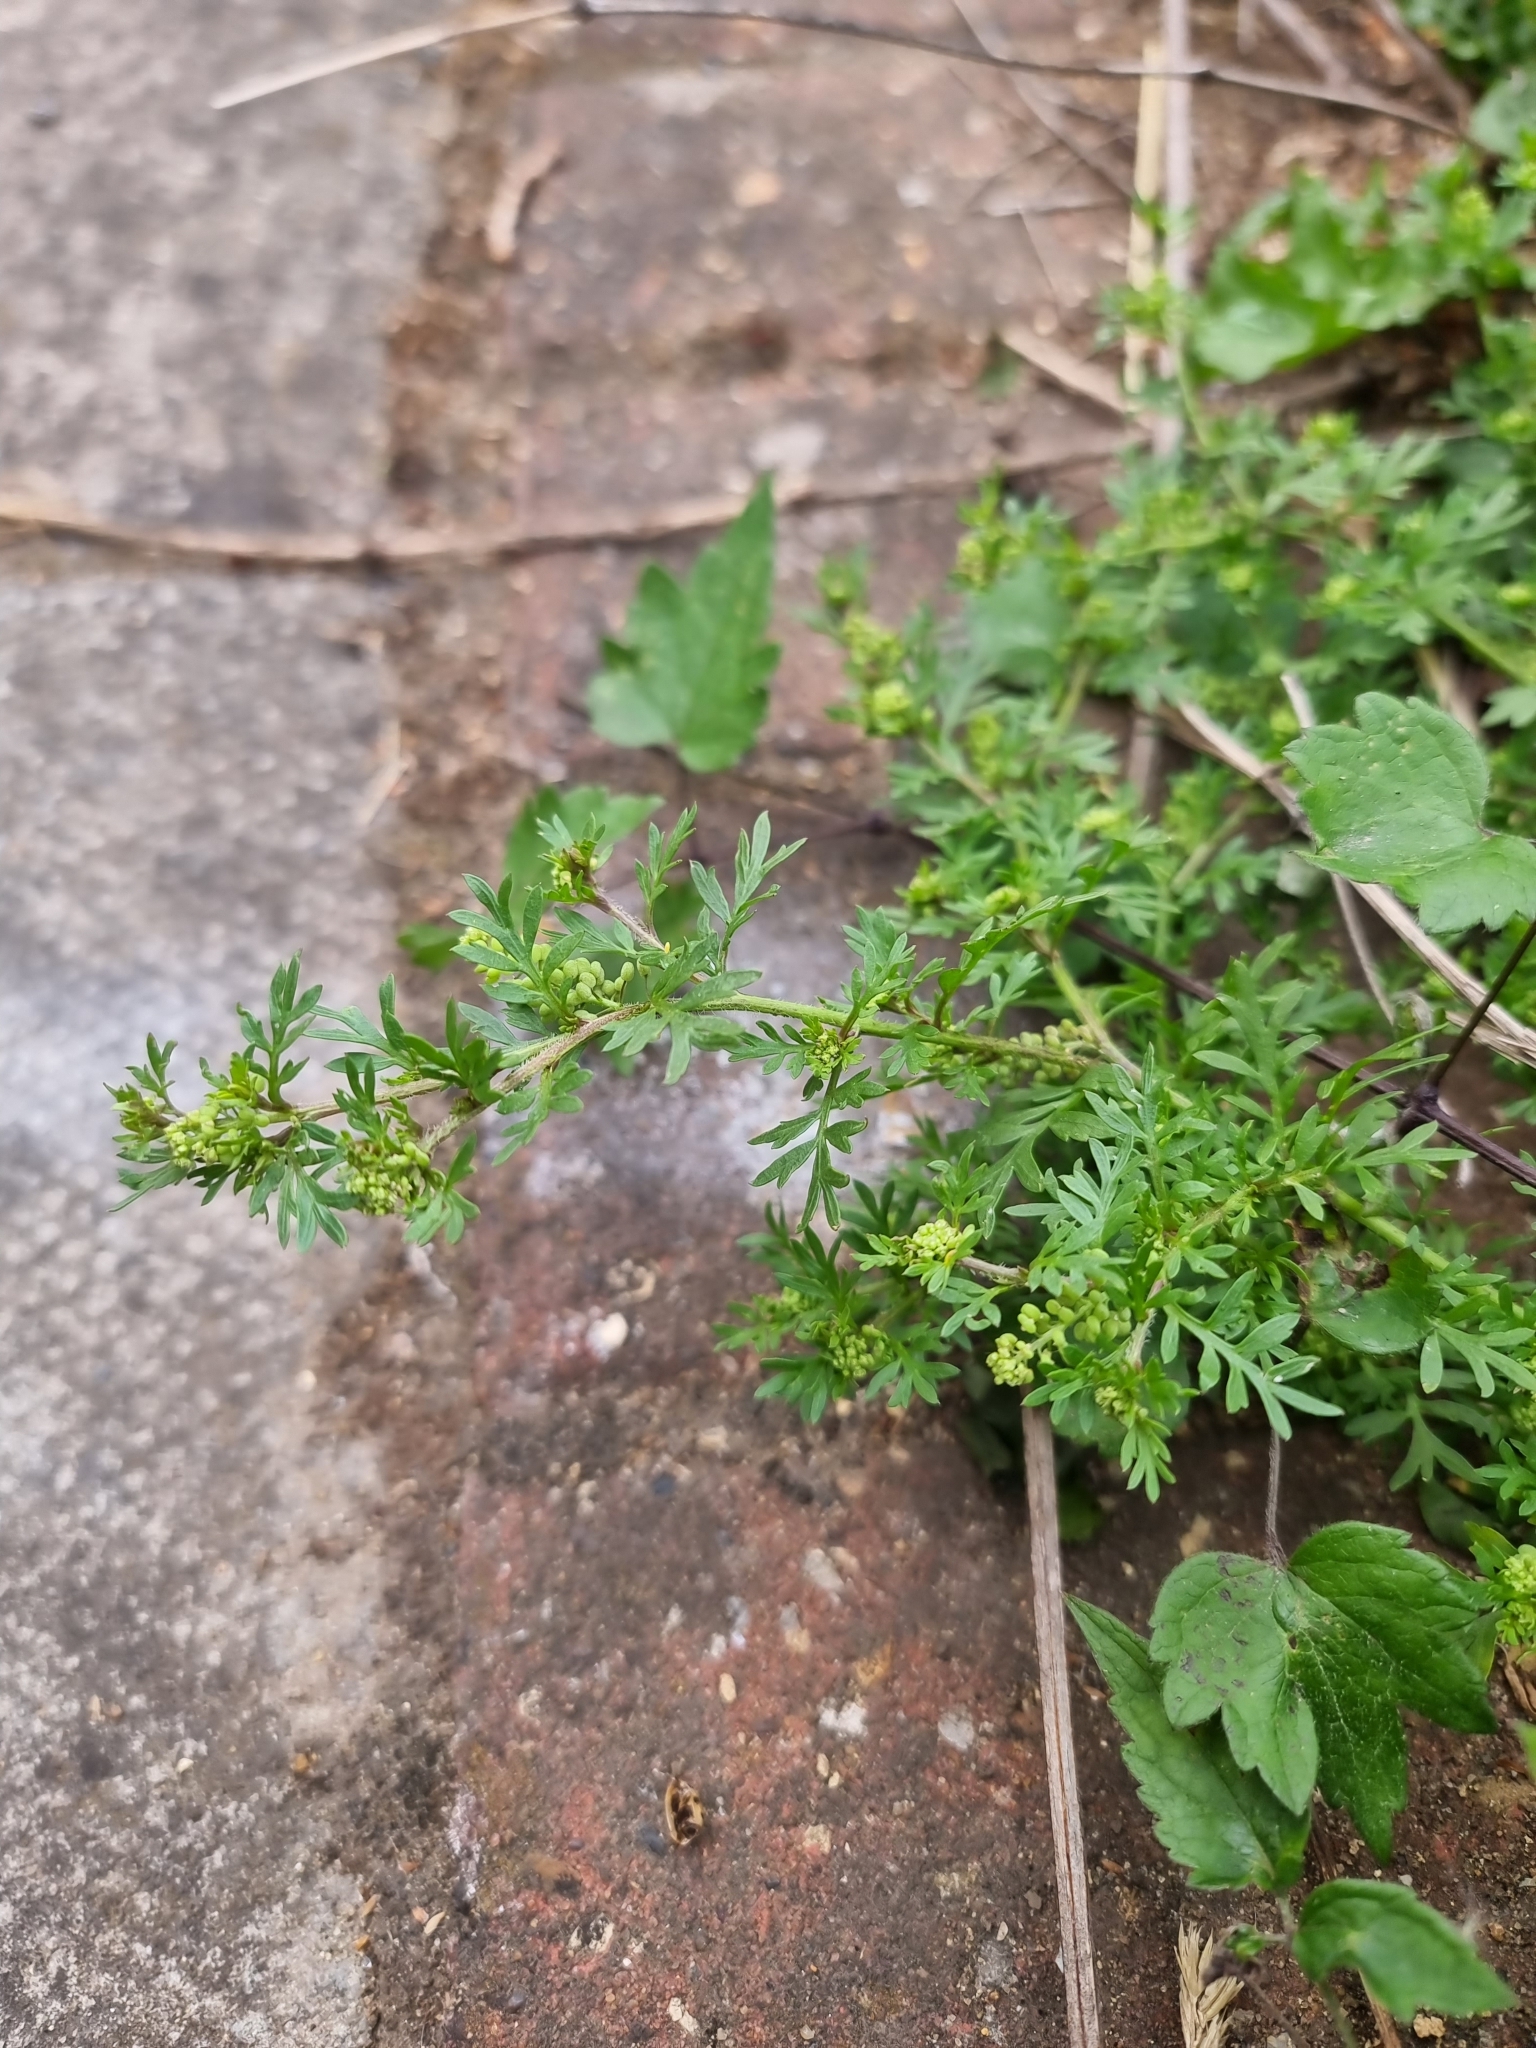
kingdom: Plantae
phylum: Tracheophyta
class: Magnoliopsida
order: Brassicales
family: Brassicaceae
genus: Lepidium
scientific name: Lepidium didymum
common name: Lesser swinecress
